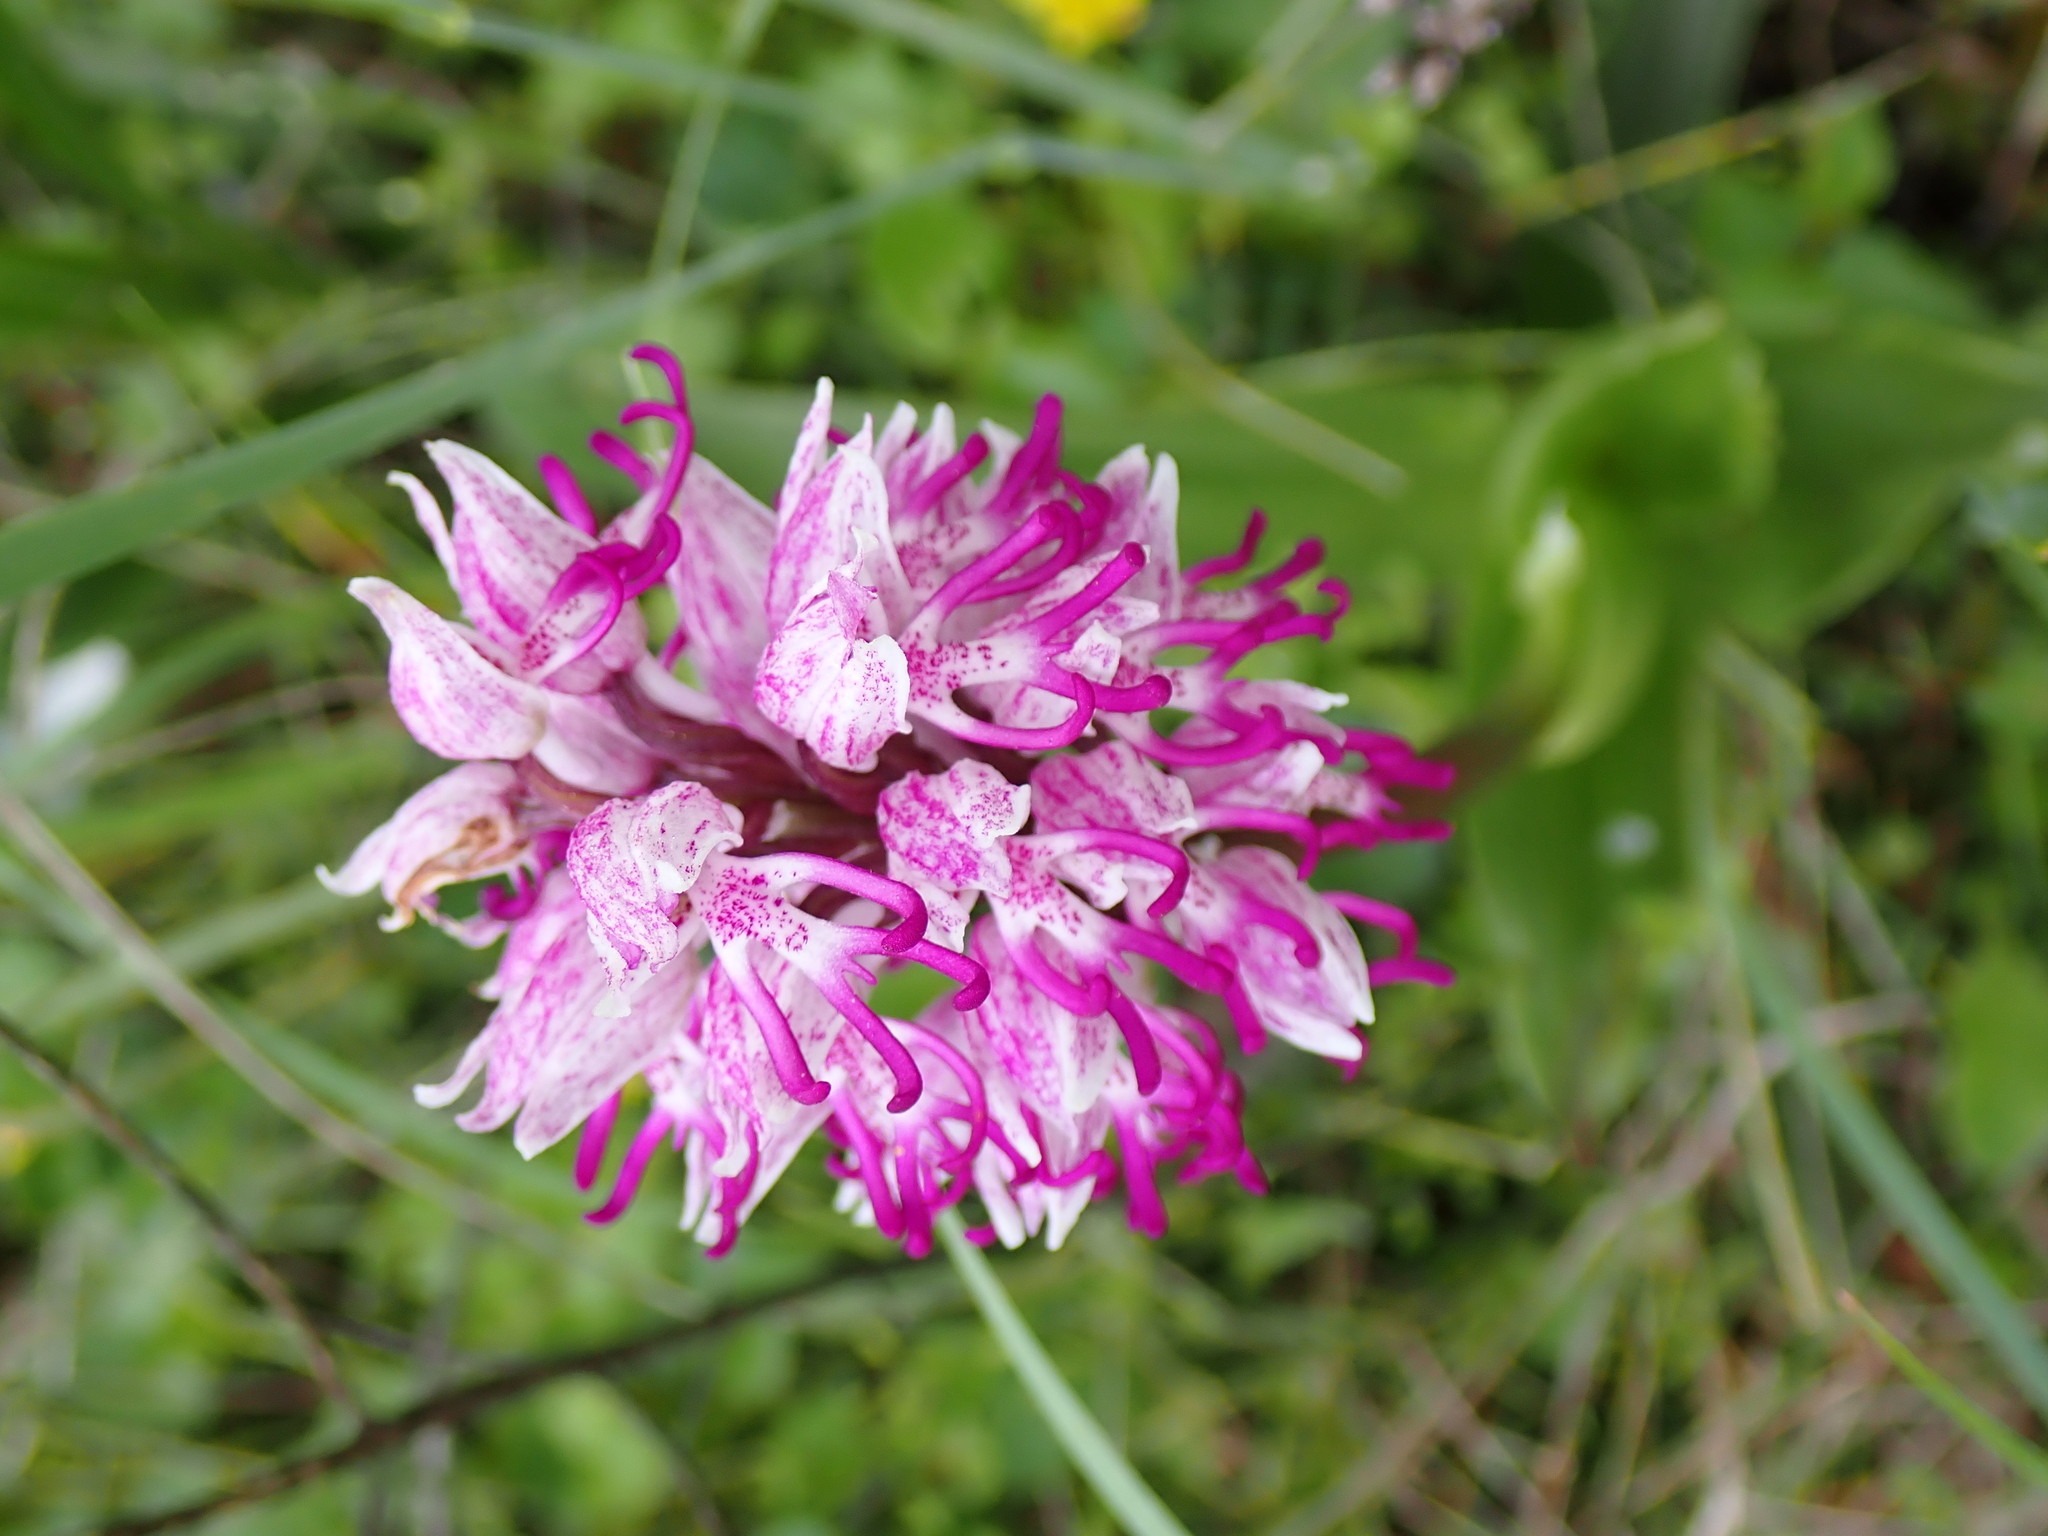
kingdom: Plantae
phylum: Tracheophyta
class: Liliopsida
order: Asparagales
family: Orchidaceae
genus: Orchis
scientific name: Orchis simia
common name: Monkey orchid
